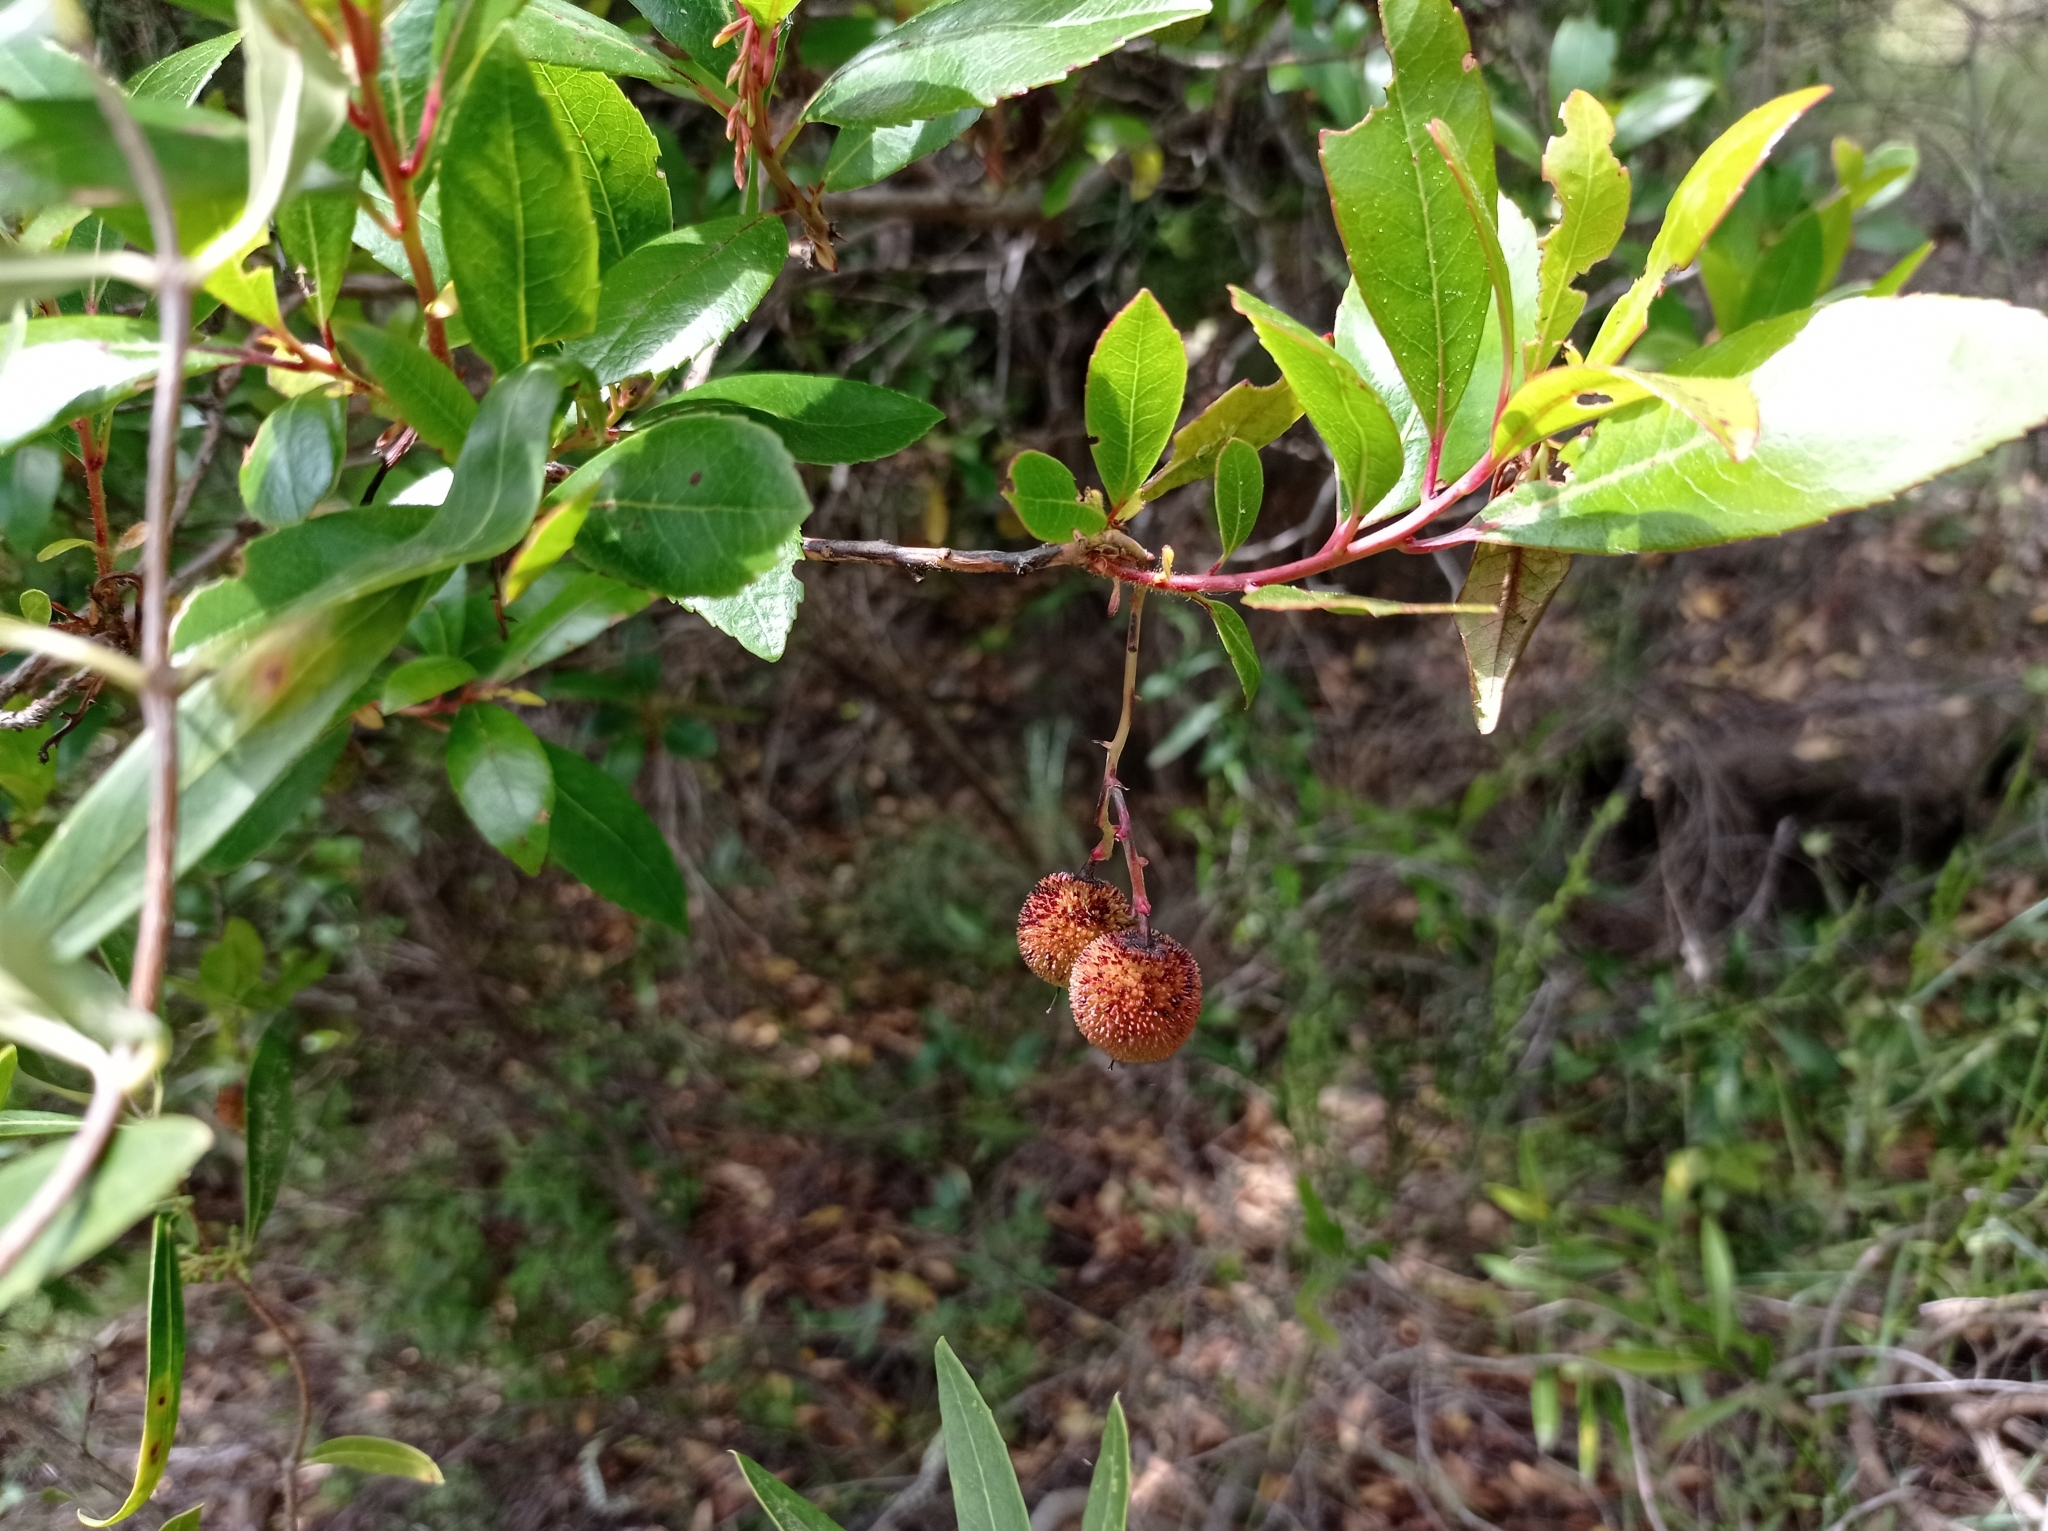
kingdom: Plantae
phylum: Tracheophyta
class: Magnoliopsida
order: Ericales
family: Ericaceae
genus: Arbutus
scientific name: Arbutus unedo
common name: Strawberry-tree
